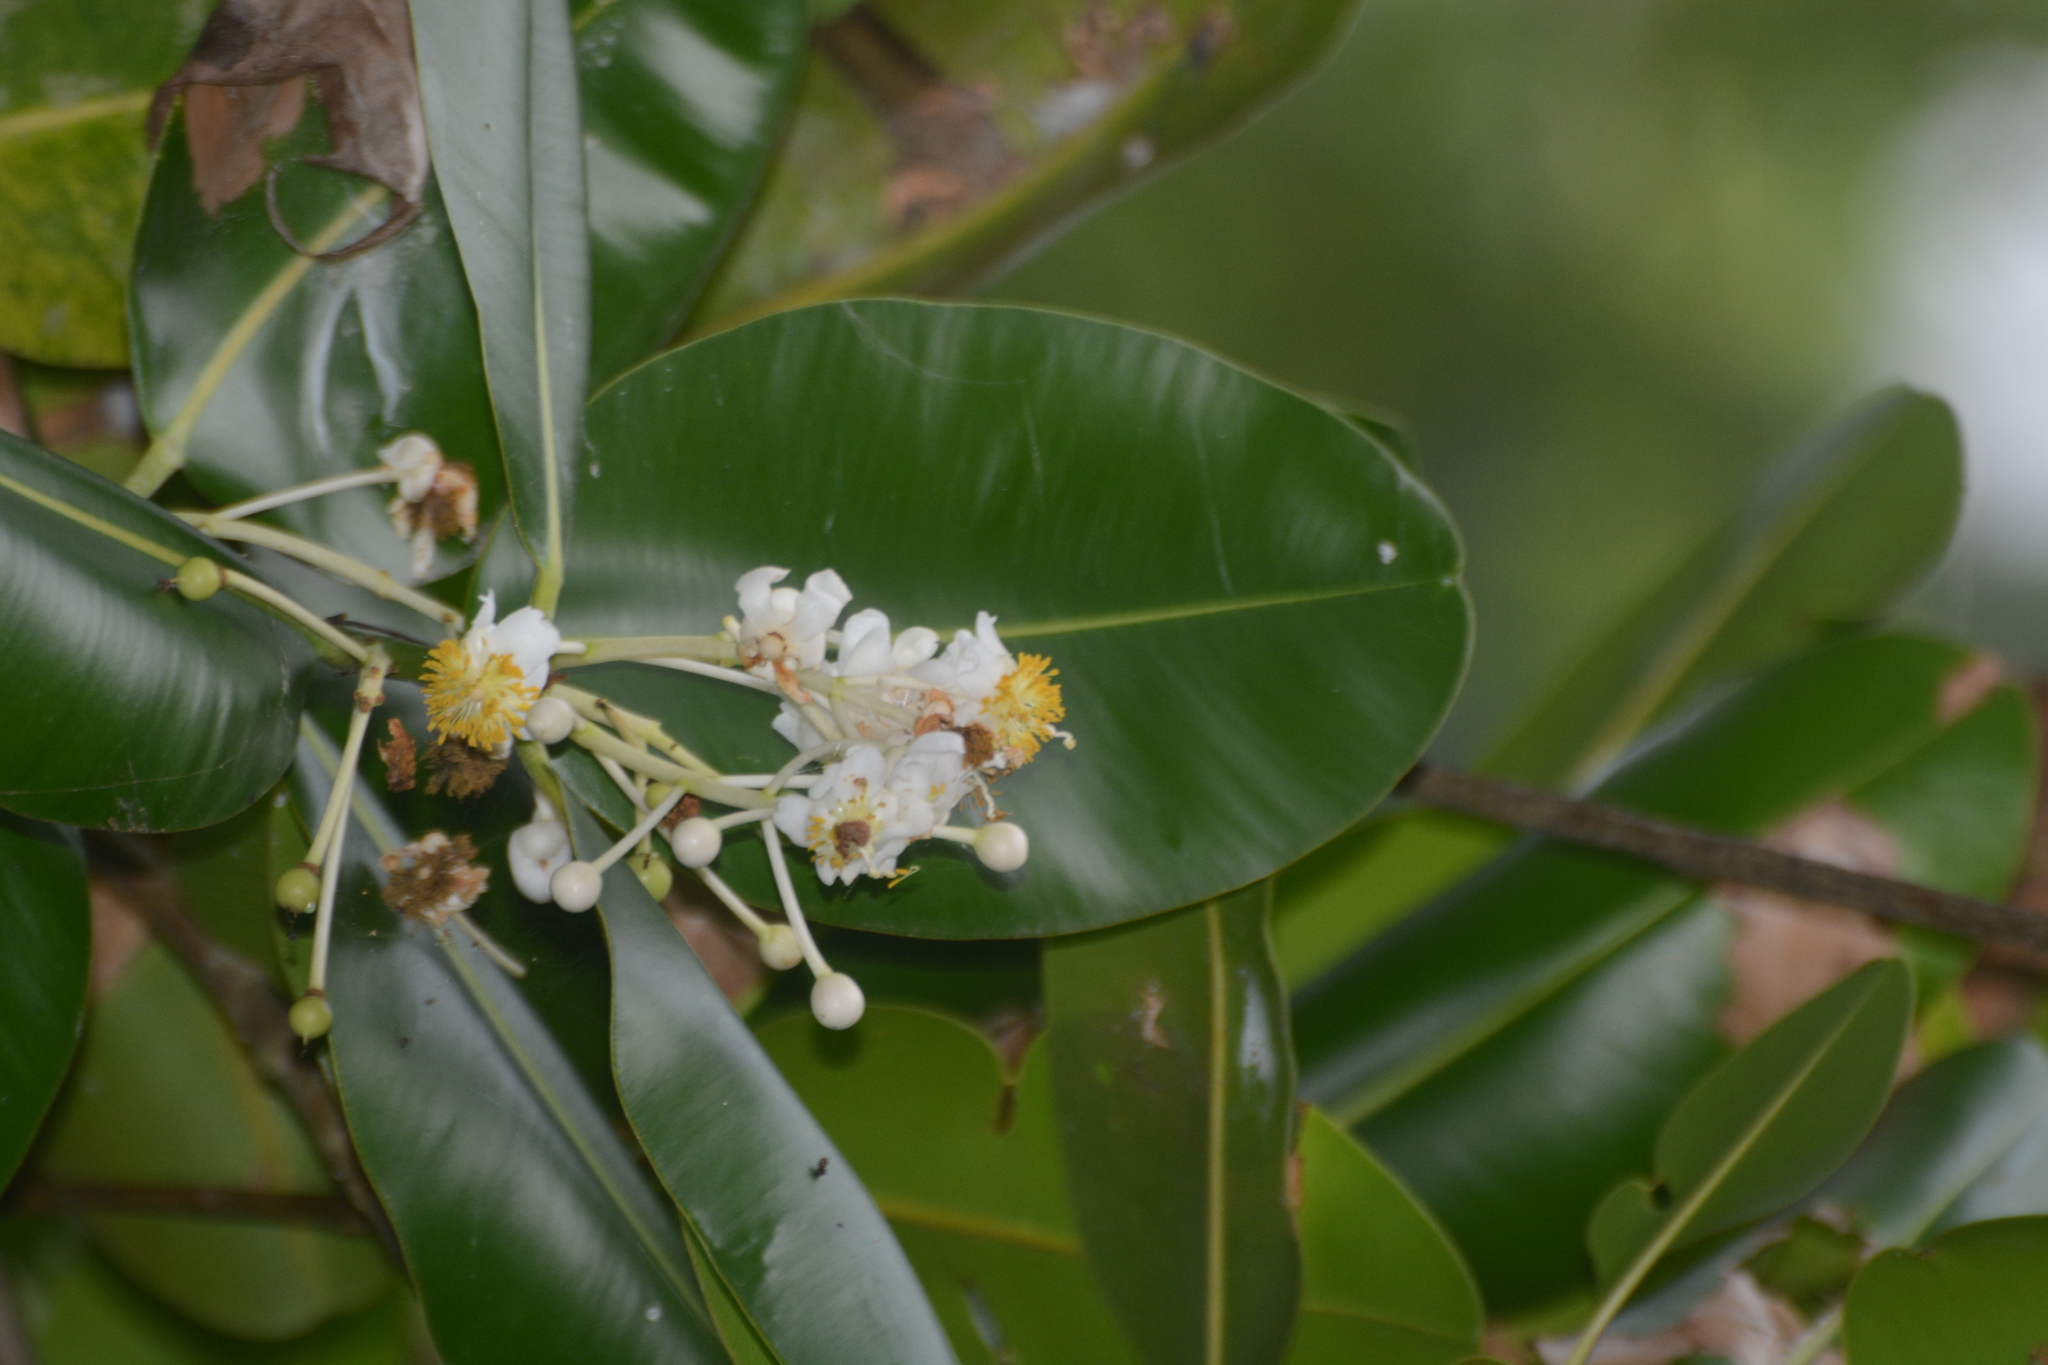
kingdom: Plantae
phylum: Tracheophyta
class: Magnoliopsida
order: Malpighiales
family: Calophyllaceae
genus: Calophyllum
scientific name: Calophyllum inophyllum
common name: Alexandrian laurel
